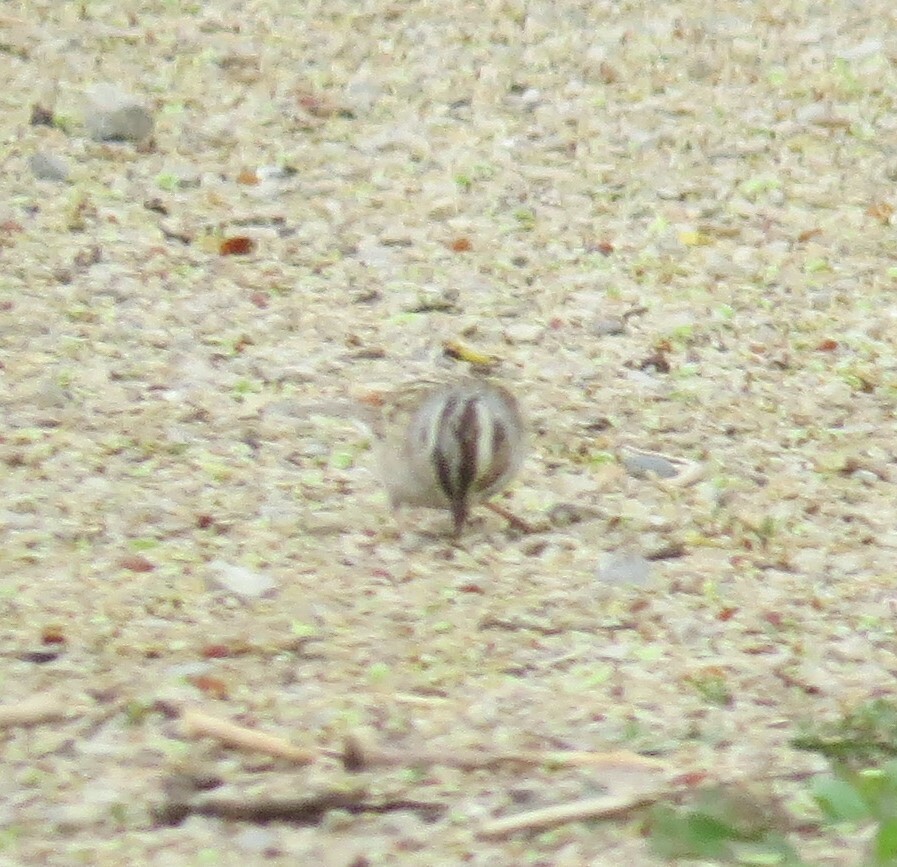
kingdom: Animalia
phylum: Chordata
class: Aves
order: Passeriformes
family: Passerellidae
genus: Spizella
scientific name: Spizella pallida
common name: Clay-colored sparrow
